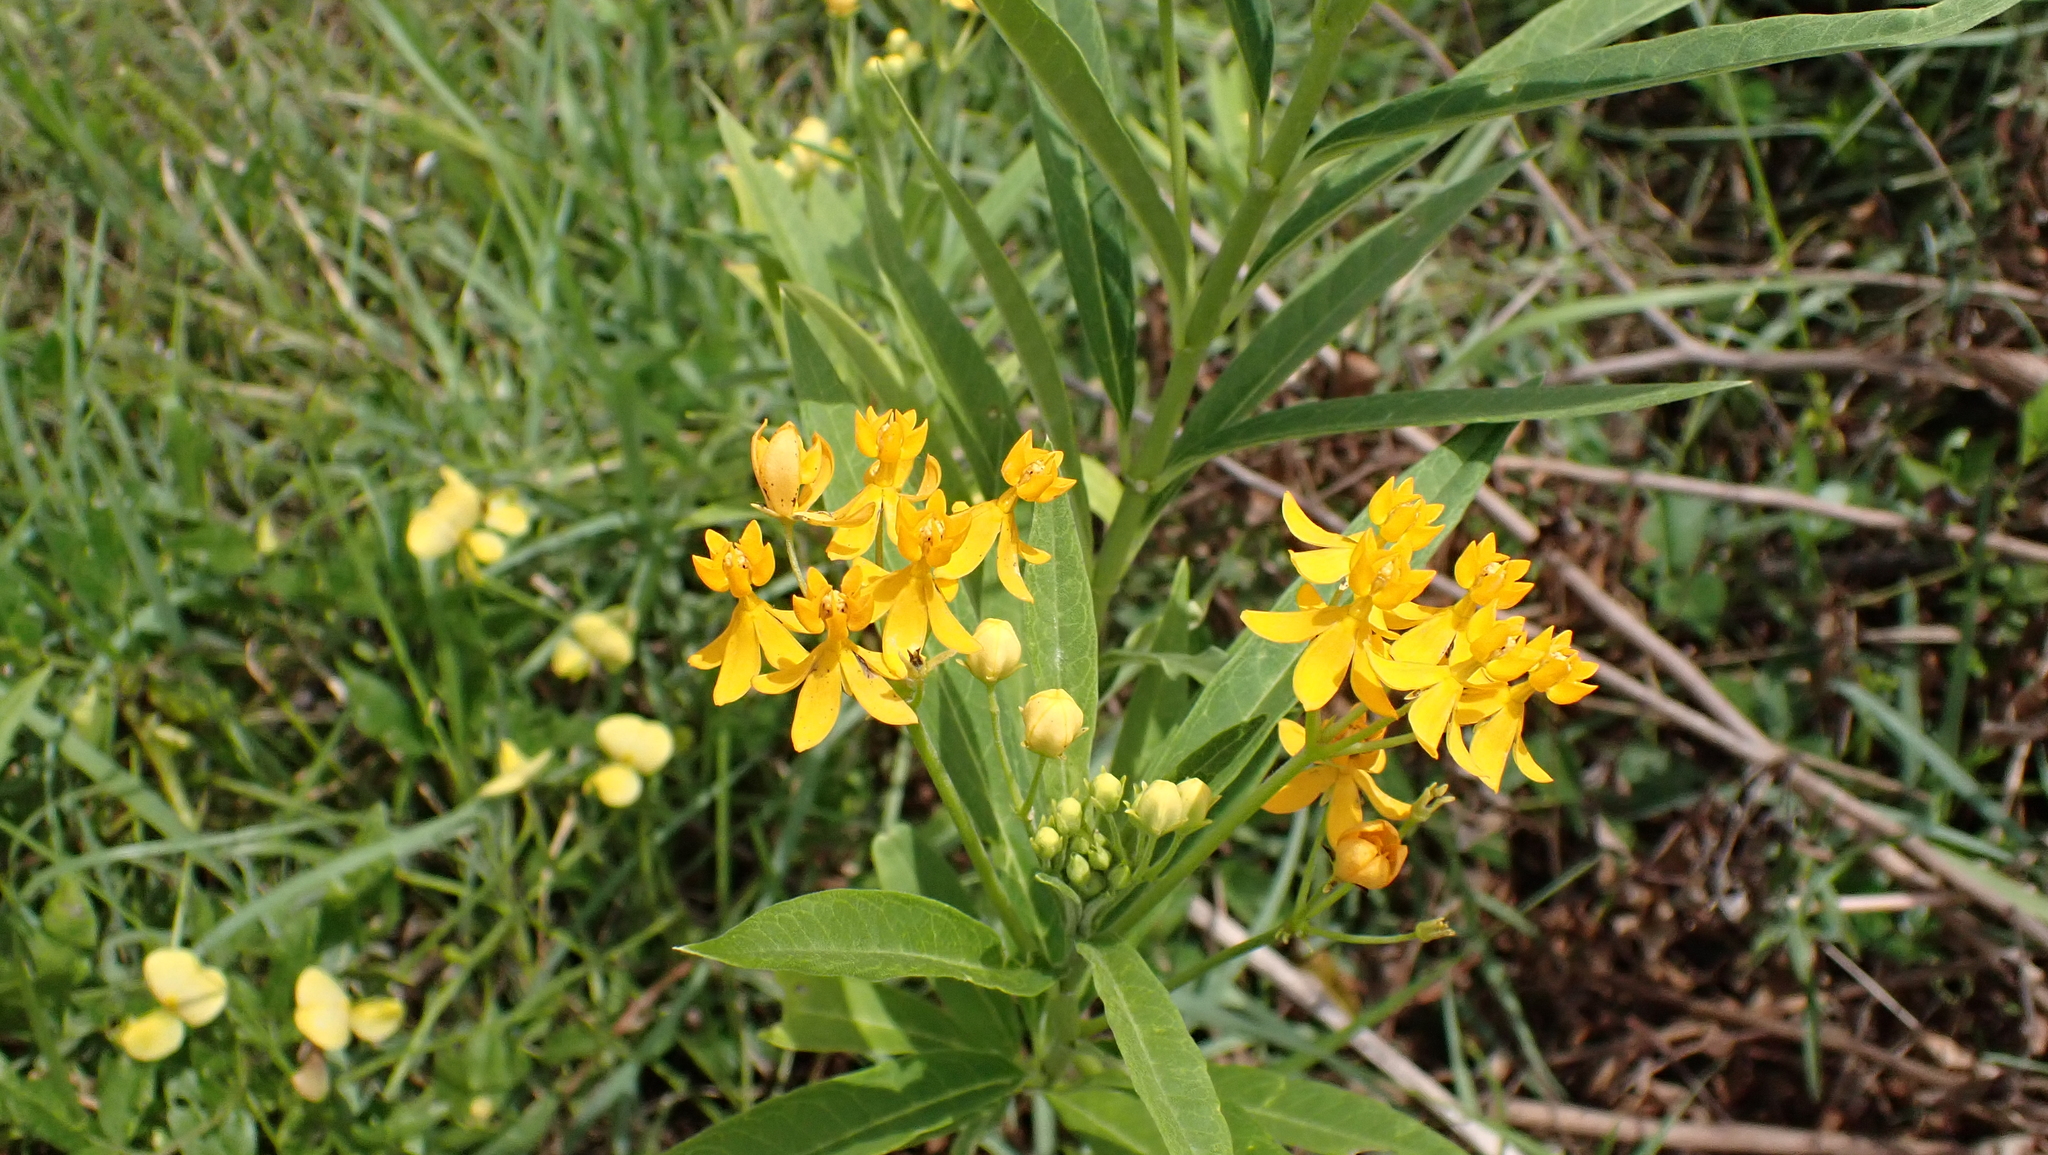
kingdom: Plantae
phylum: Tracheophyta
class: Magnoliopsida
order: Gentianales
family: Apocynaceae
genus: Asclepias
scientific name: Asclepias curassavica
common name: Bloodflower
